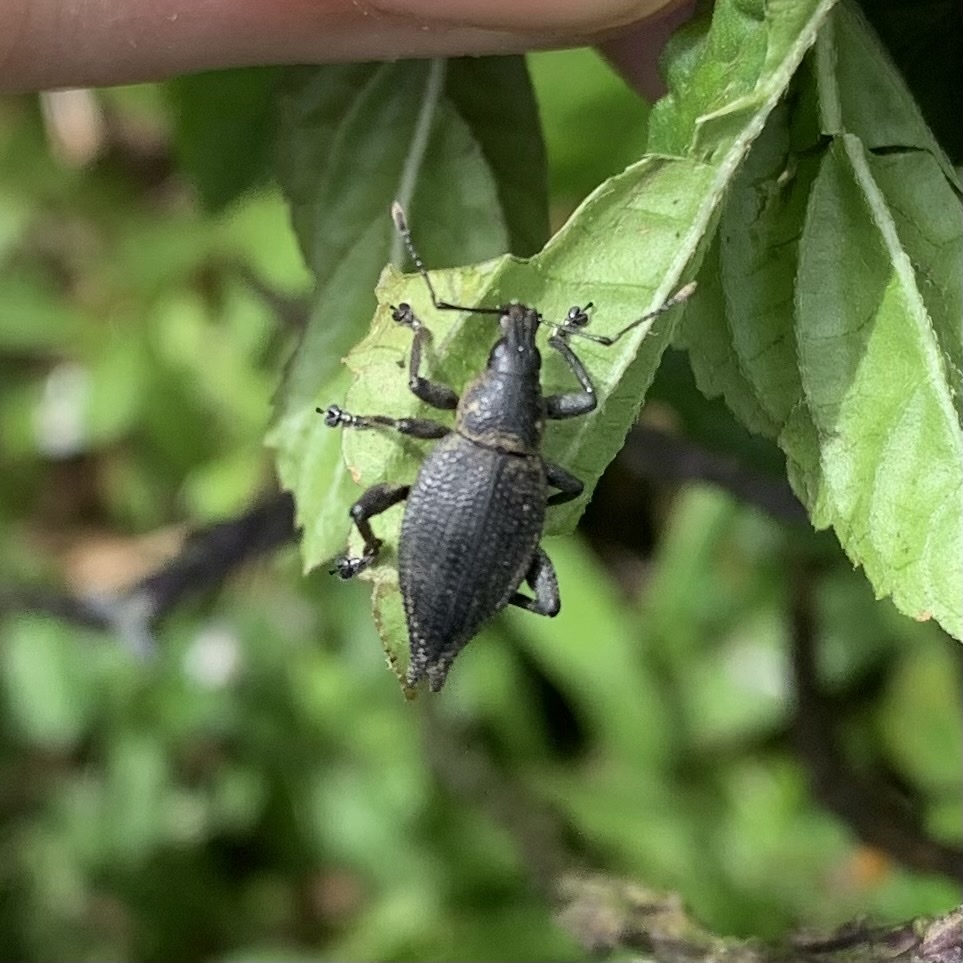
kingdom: Animalia
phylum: Arthropoda
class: Insecta
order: Coleoptera
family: Curculionidae
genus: Elytrurus
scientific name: Elytrurus serrulatus
